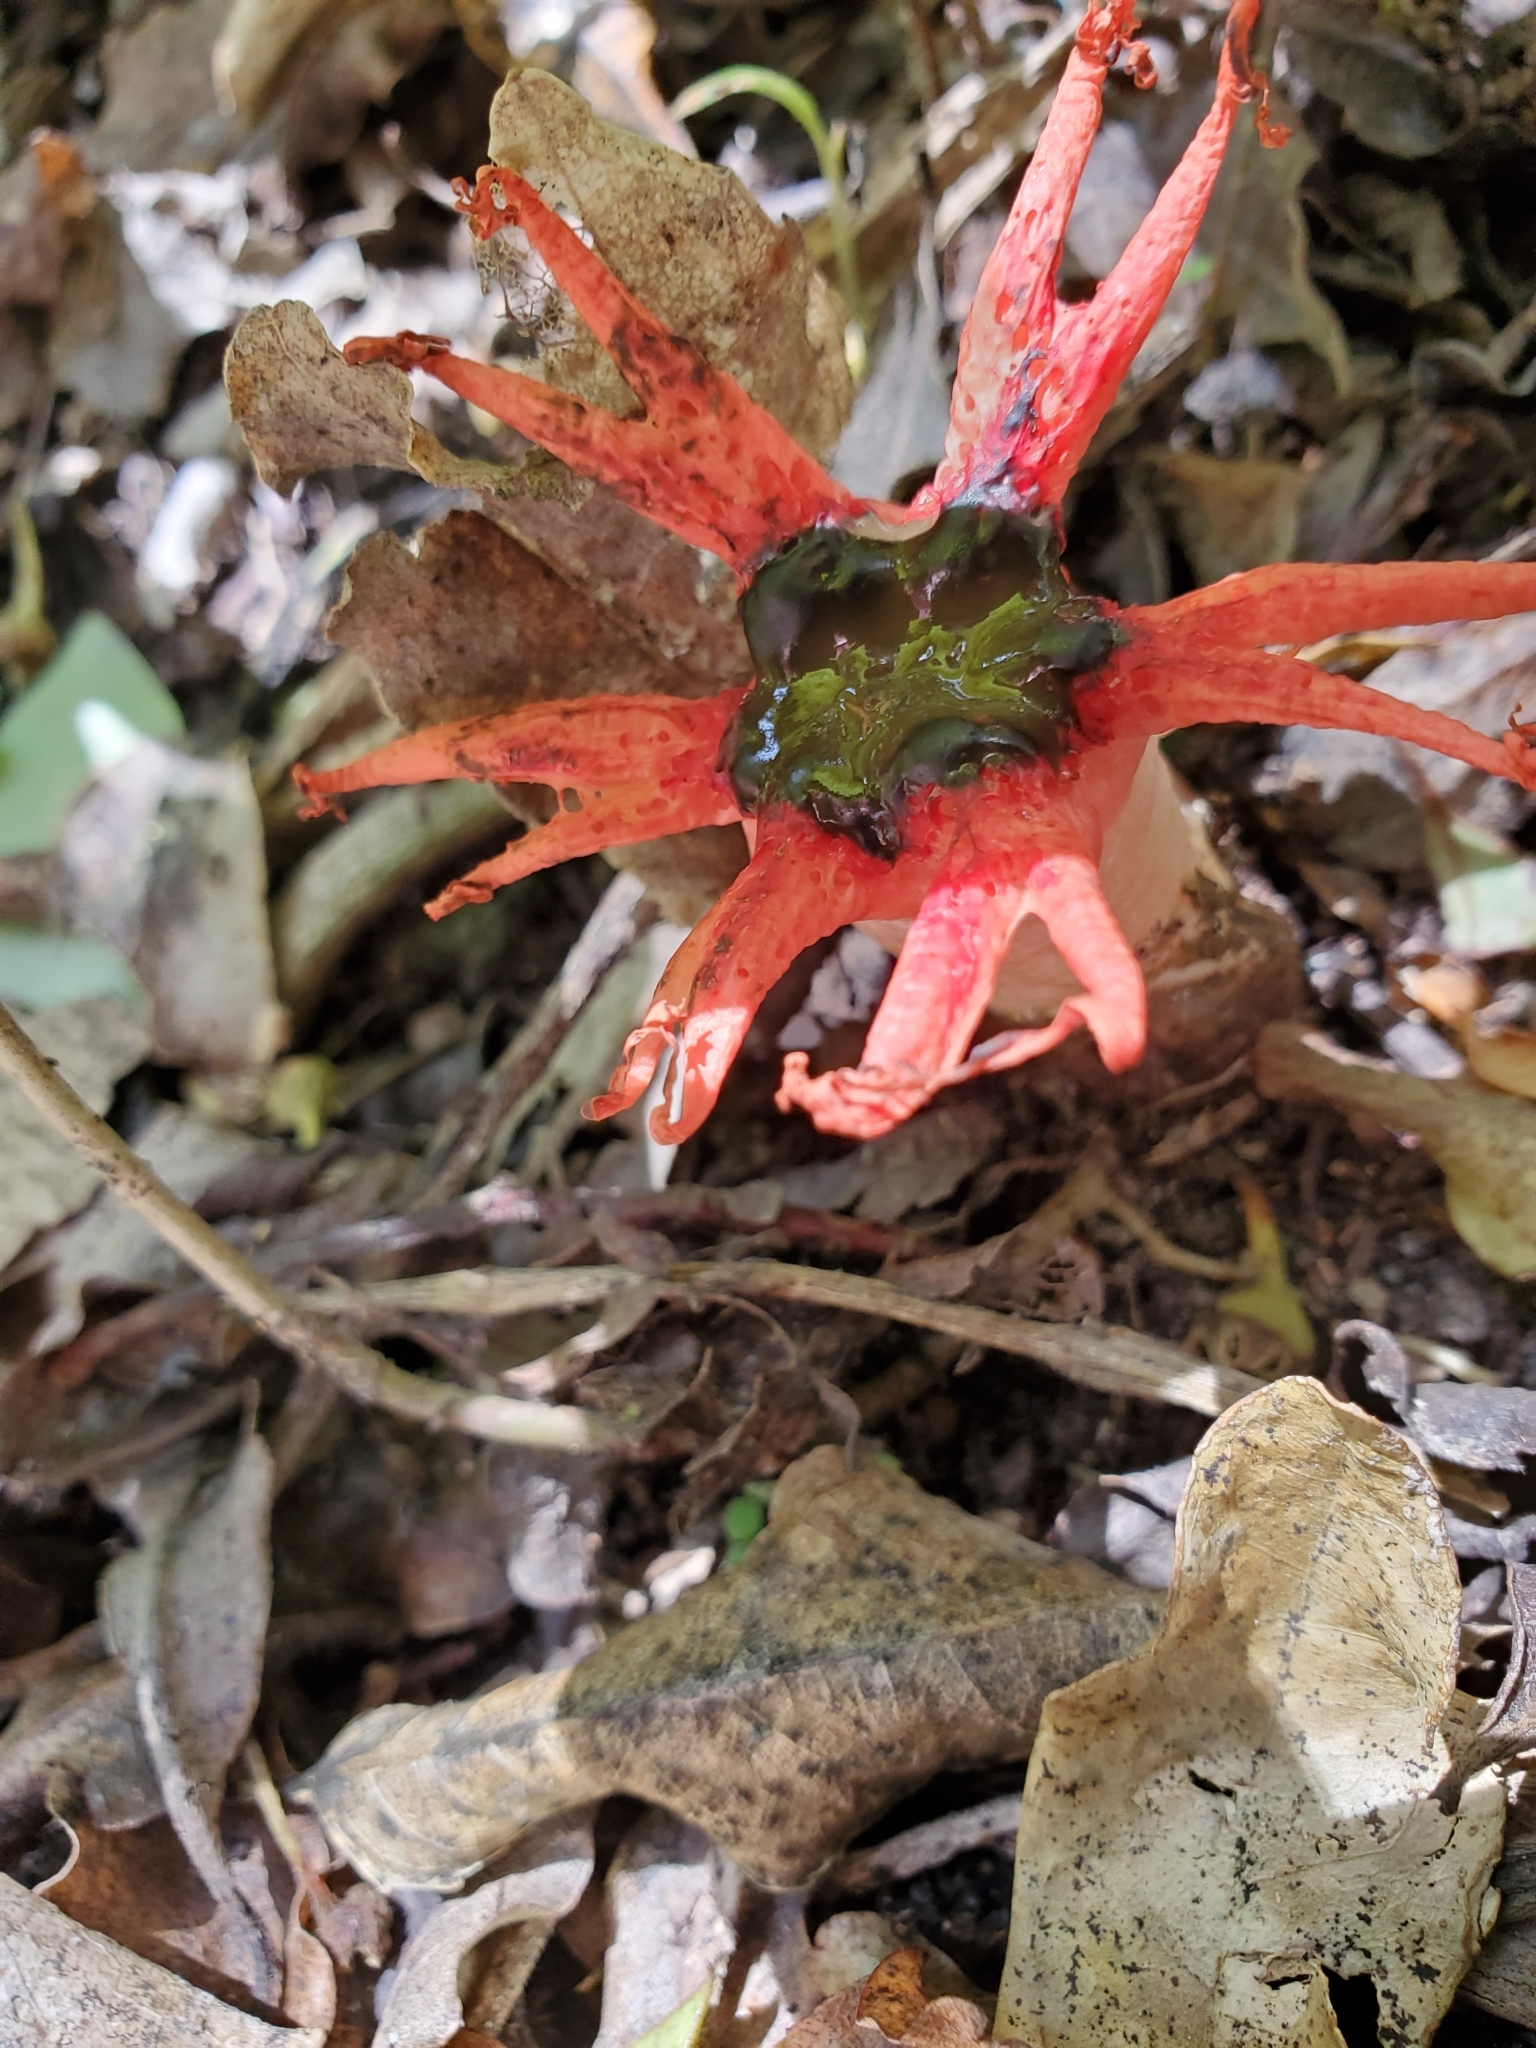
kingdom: Fungi
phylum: Basidiomycota
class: Agaricomycetes
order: Phallales
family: Phallaceae
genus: Aseroe
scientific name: Aseroe rubra
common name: Starfish fungus
